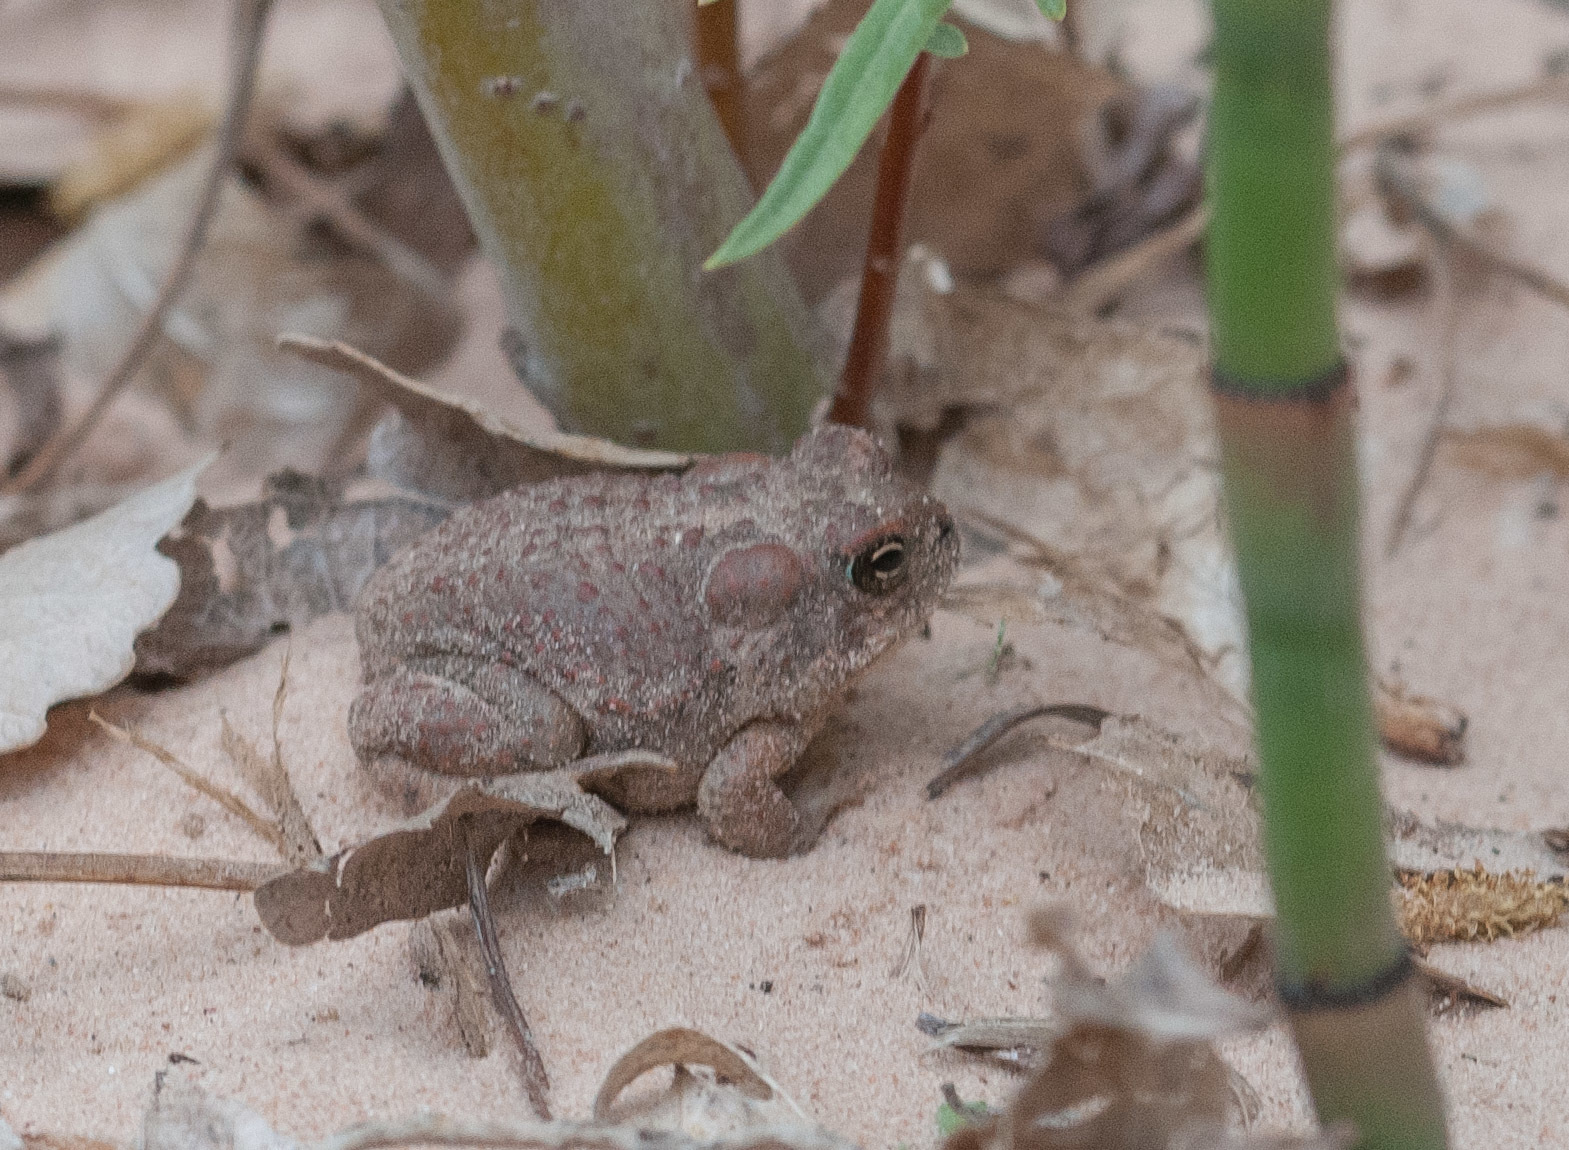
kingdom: Animalia
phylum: Chordata
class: Amphibia
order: Anura
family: Bufonidae
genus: Anaxyrus
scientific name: Anaxyrus microscaphus
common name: Arizona toad
